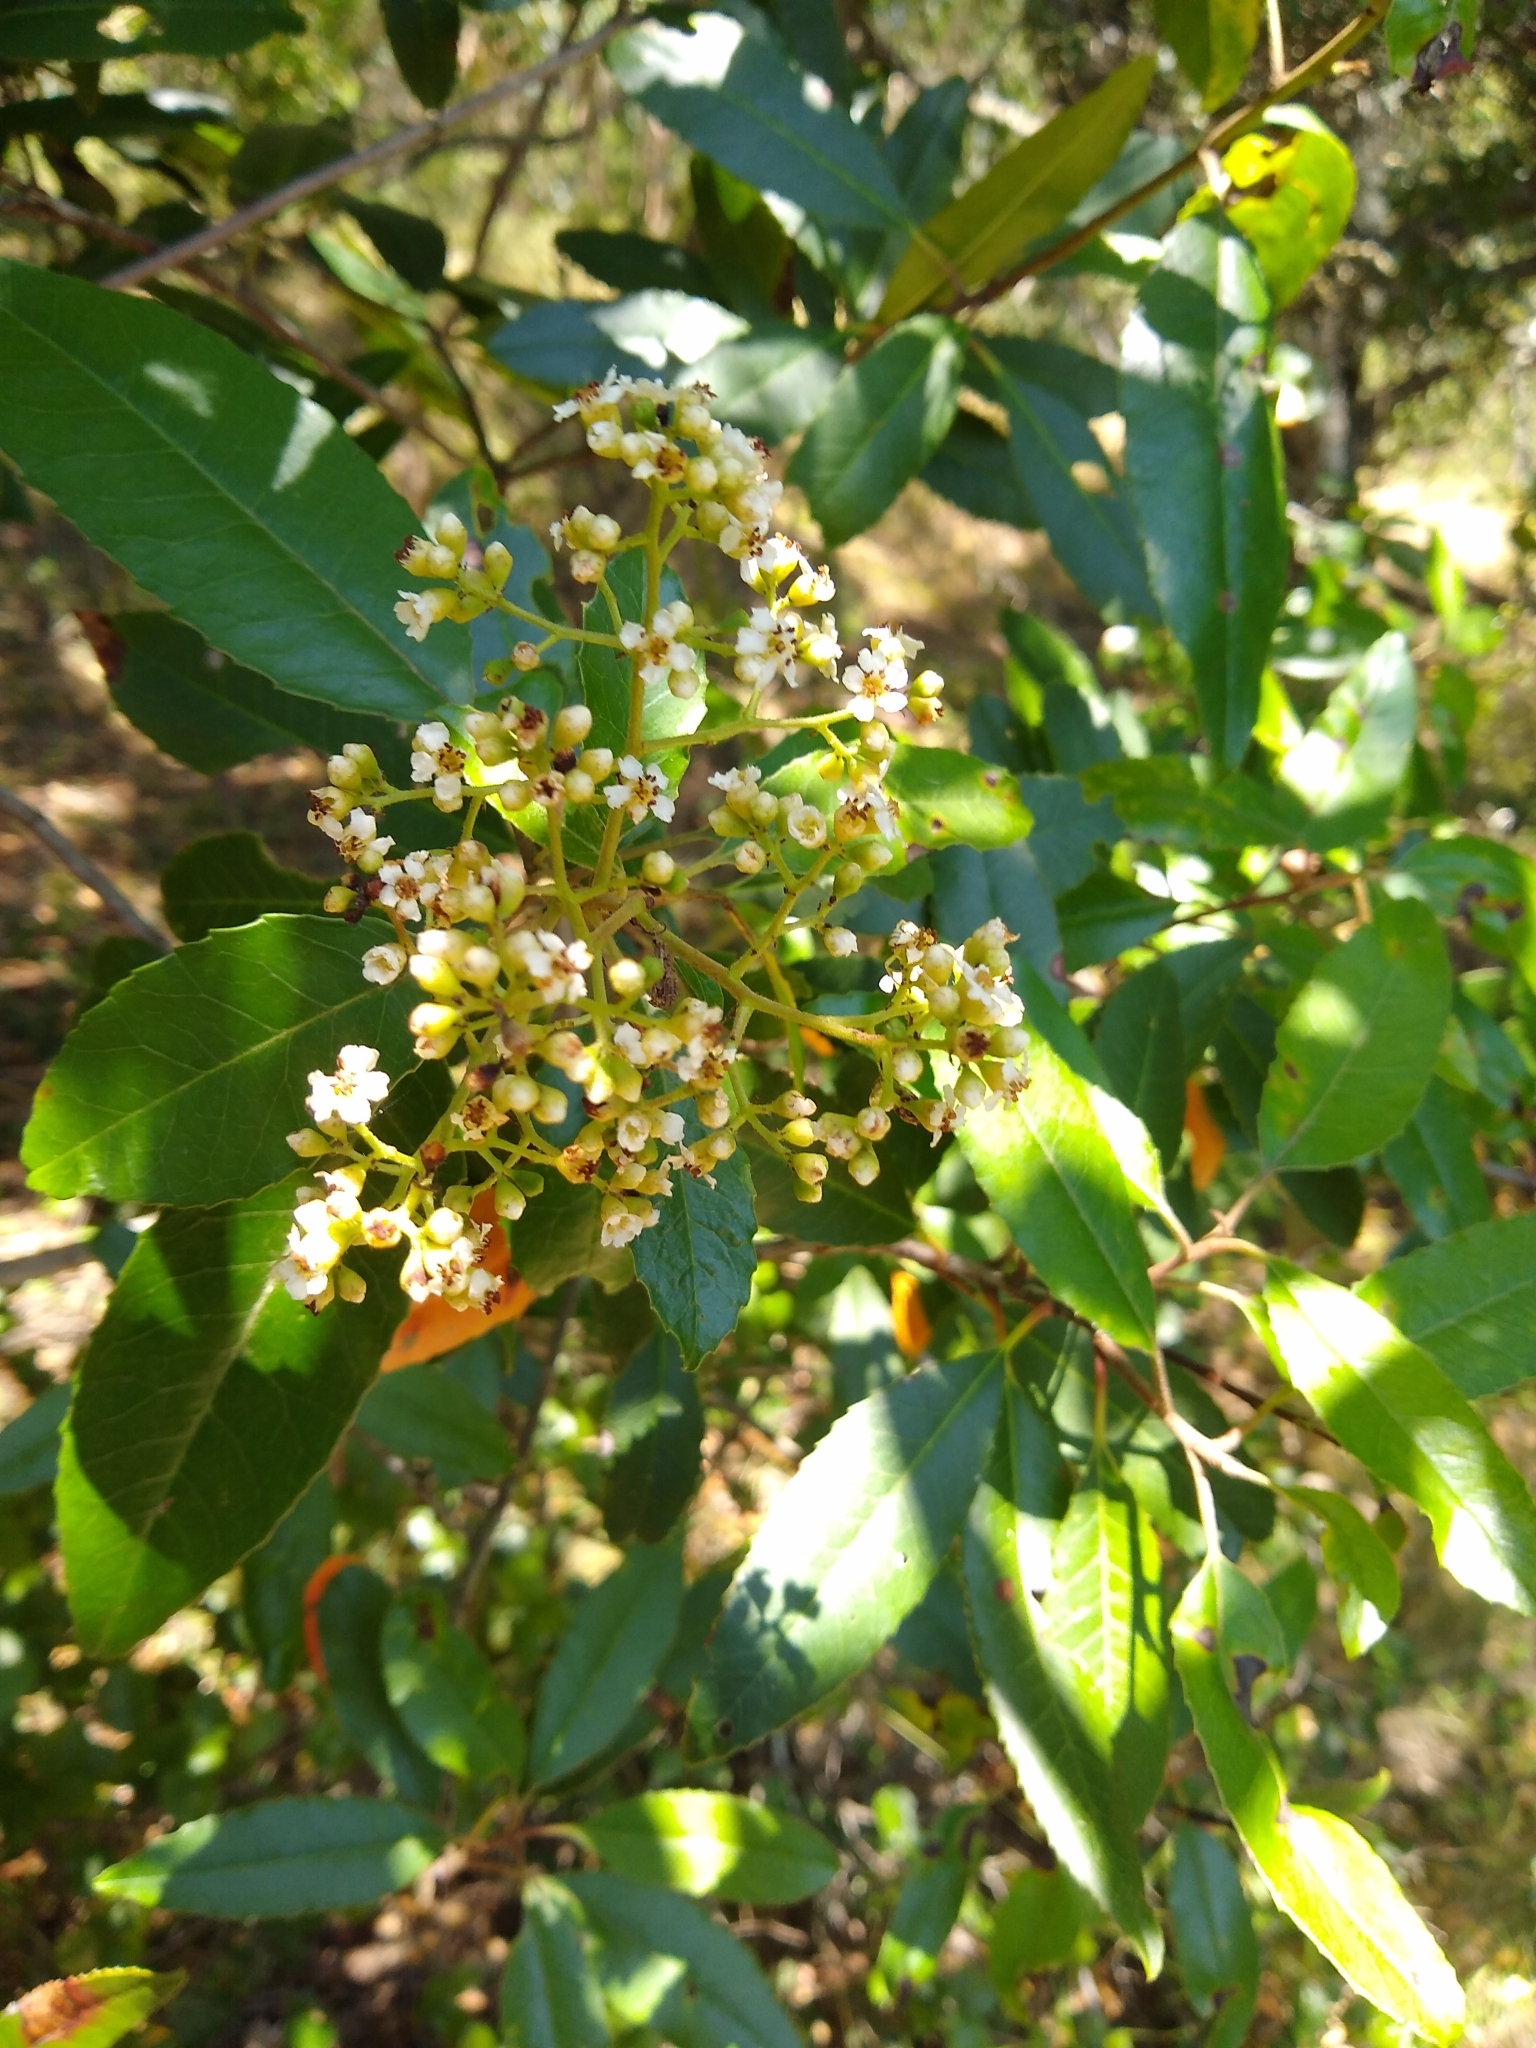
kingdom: Plantae
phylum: Tracheophyta
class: Magnoliopsida
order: Rosales
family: Rosaceae
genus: Heteromeles
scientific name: Heteromeles arbutifolia
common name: California-holly
